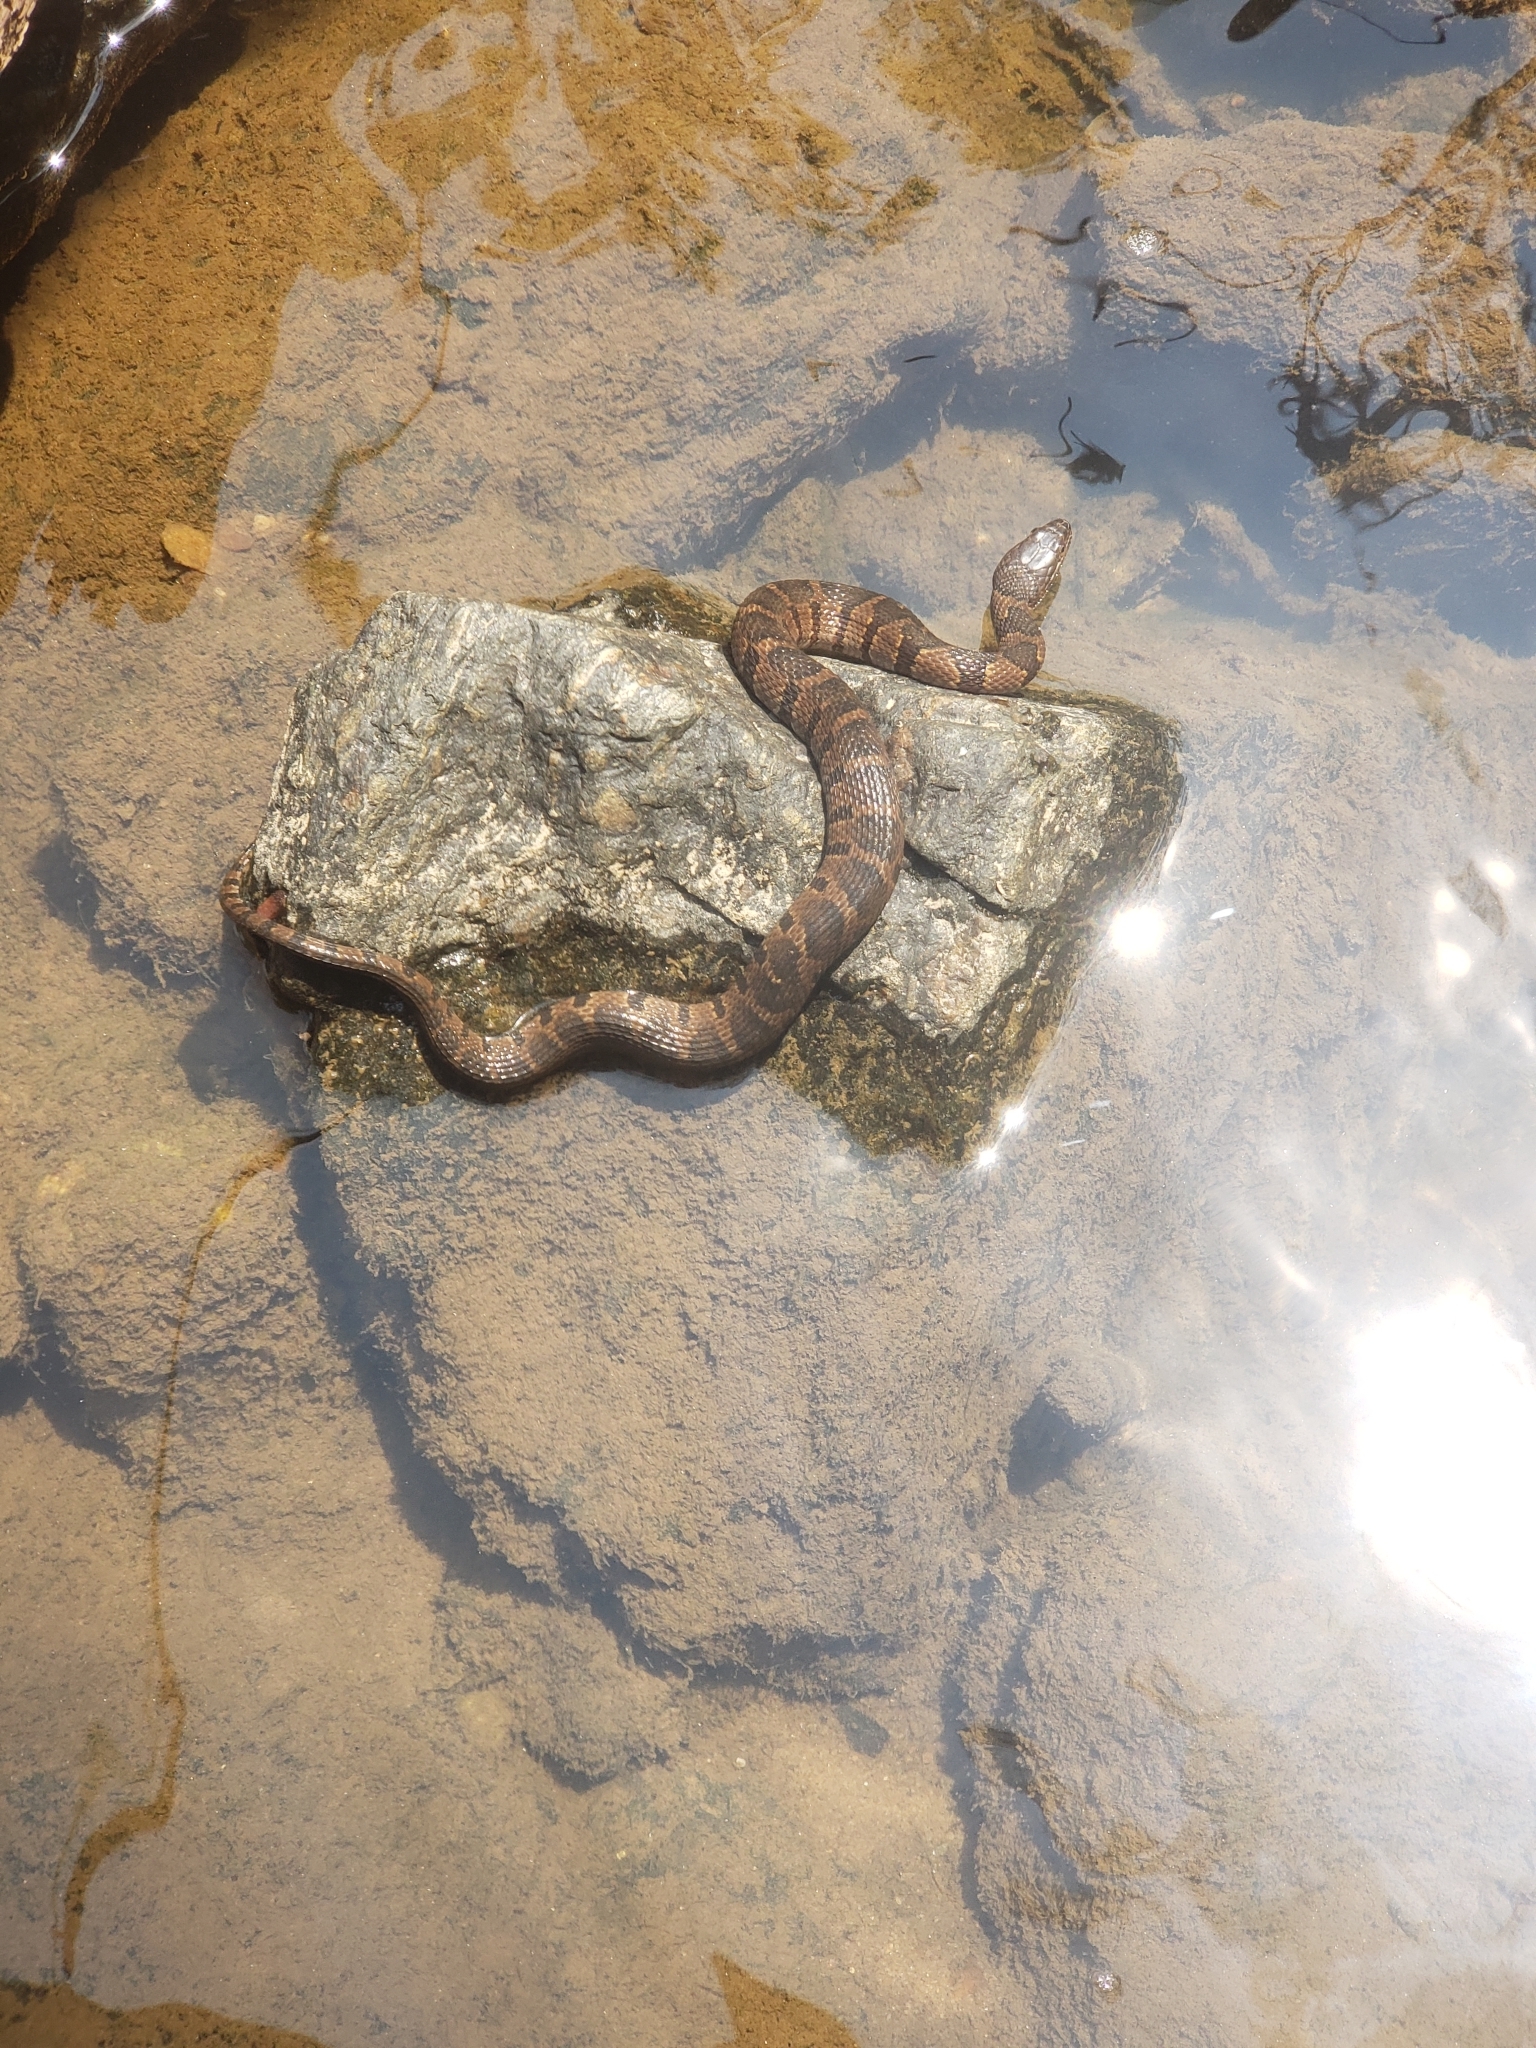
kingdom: Animalia
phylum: Chordata
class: Squamata
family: Colubridae
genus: Nerodia
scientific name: Nerodia sipedon
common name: Northern water snake
